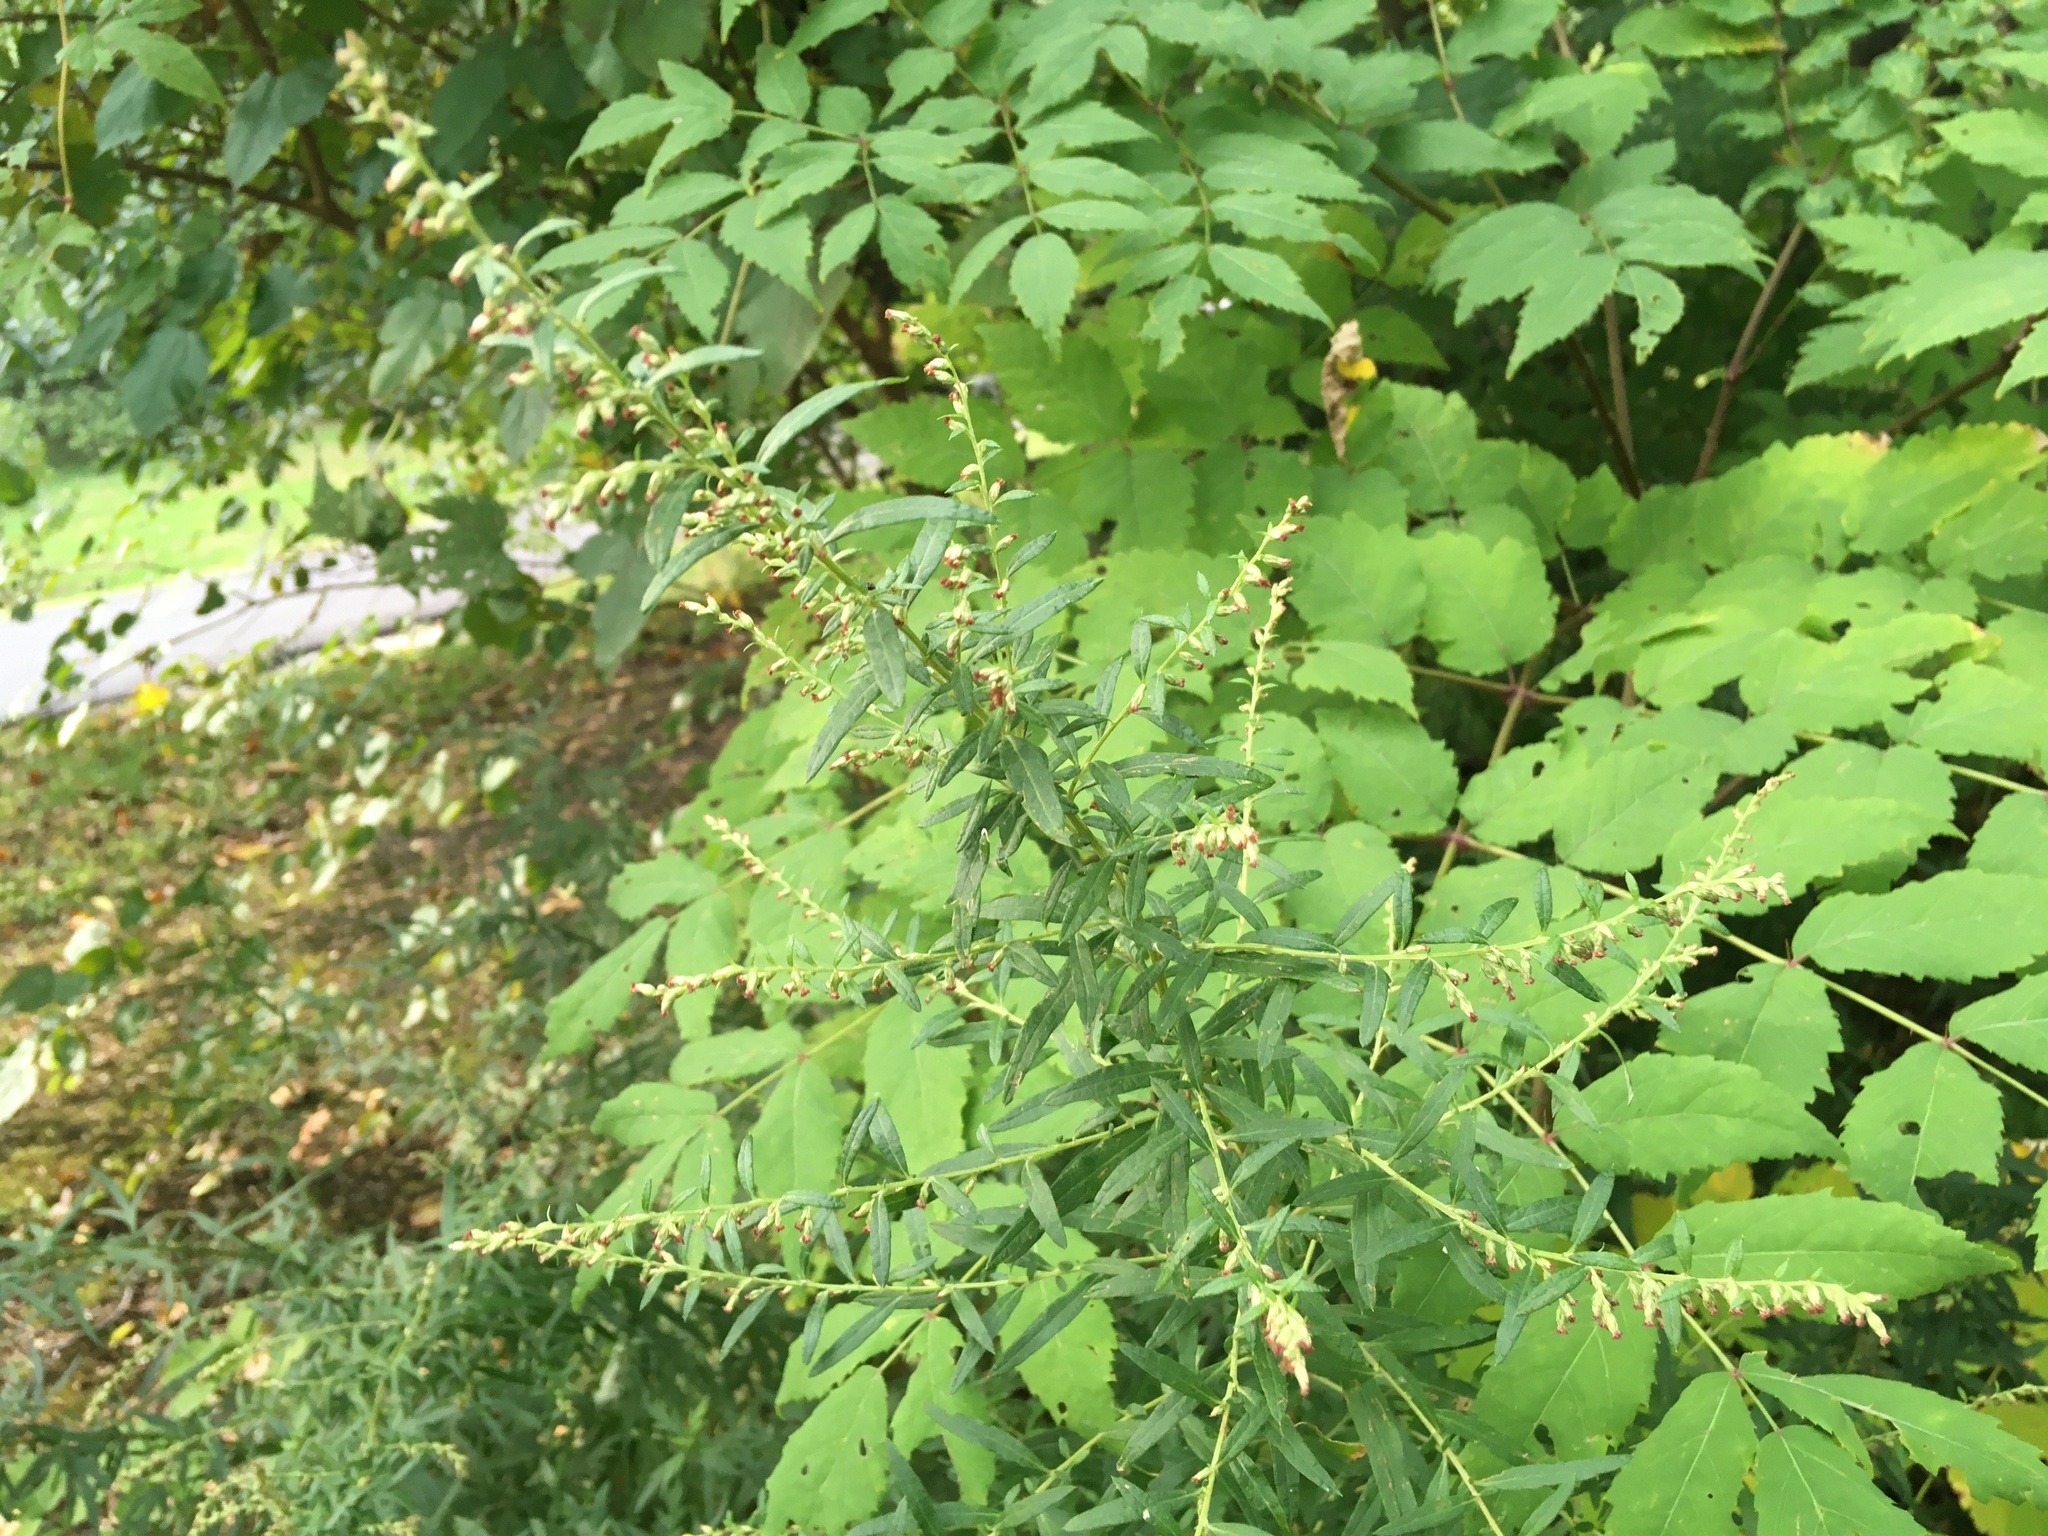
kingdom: Plantae
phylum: Tracheophyta
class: Magnoliopsida
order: Asterales
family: Asteraceae
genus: Artemisia
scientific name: Artemisia vulgaris
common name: Mugwort
